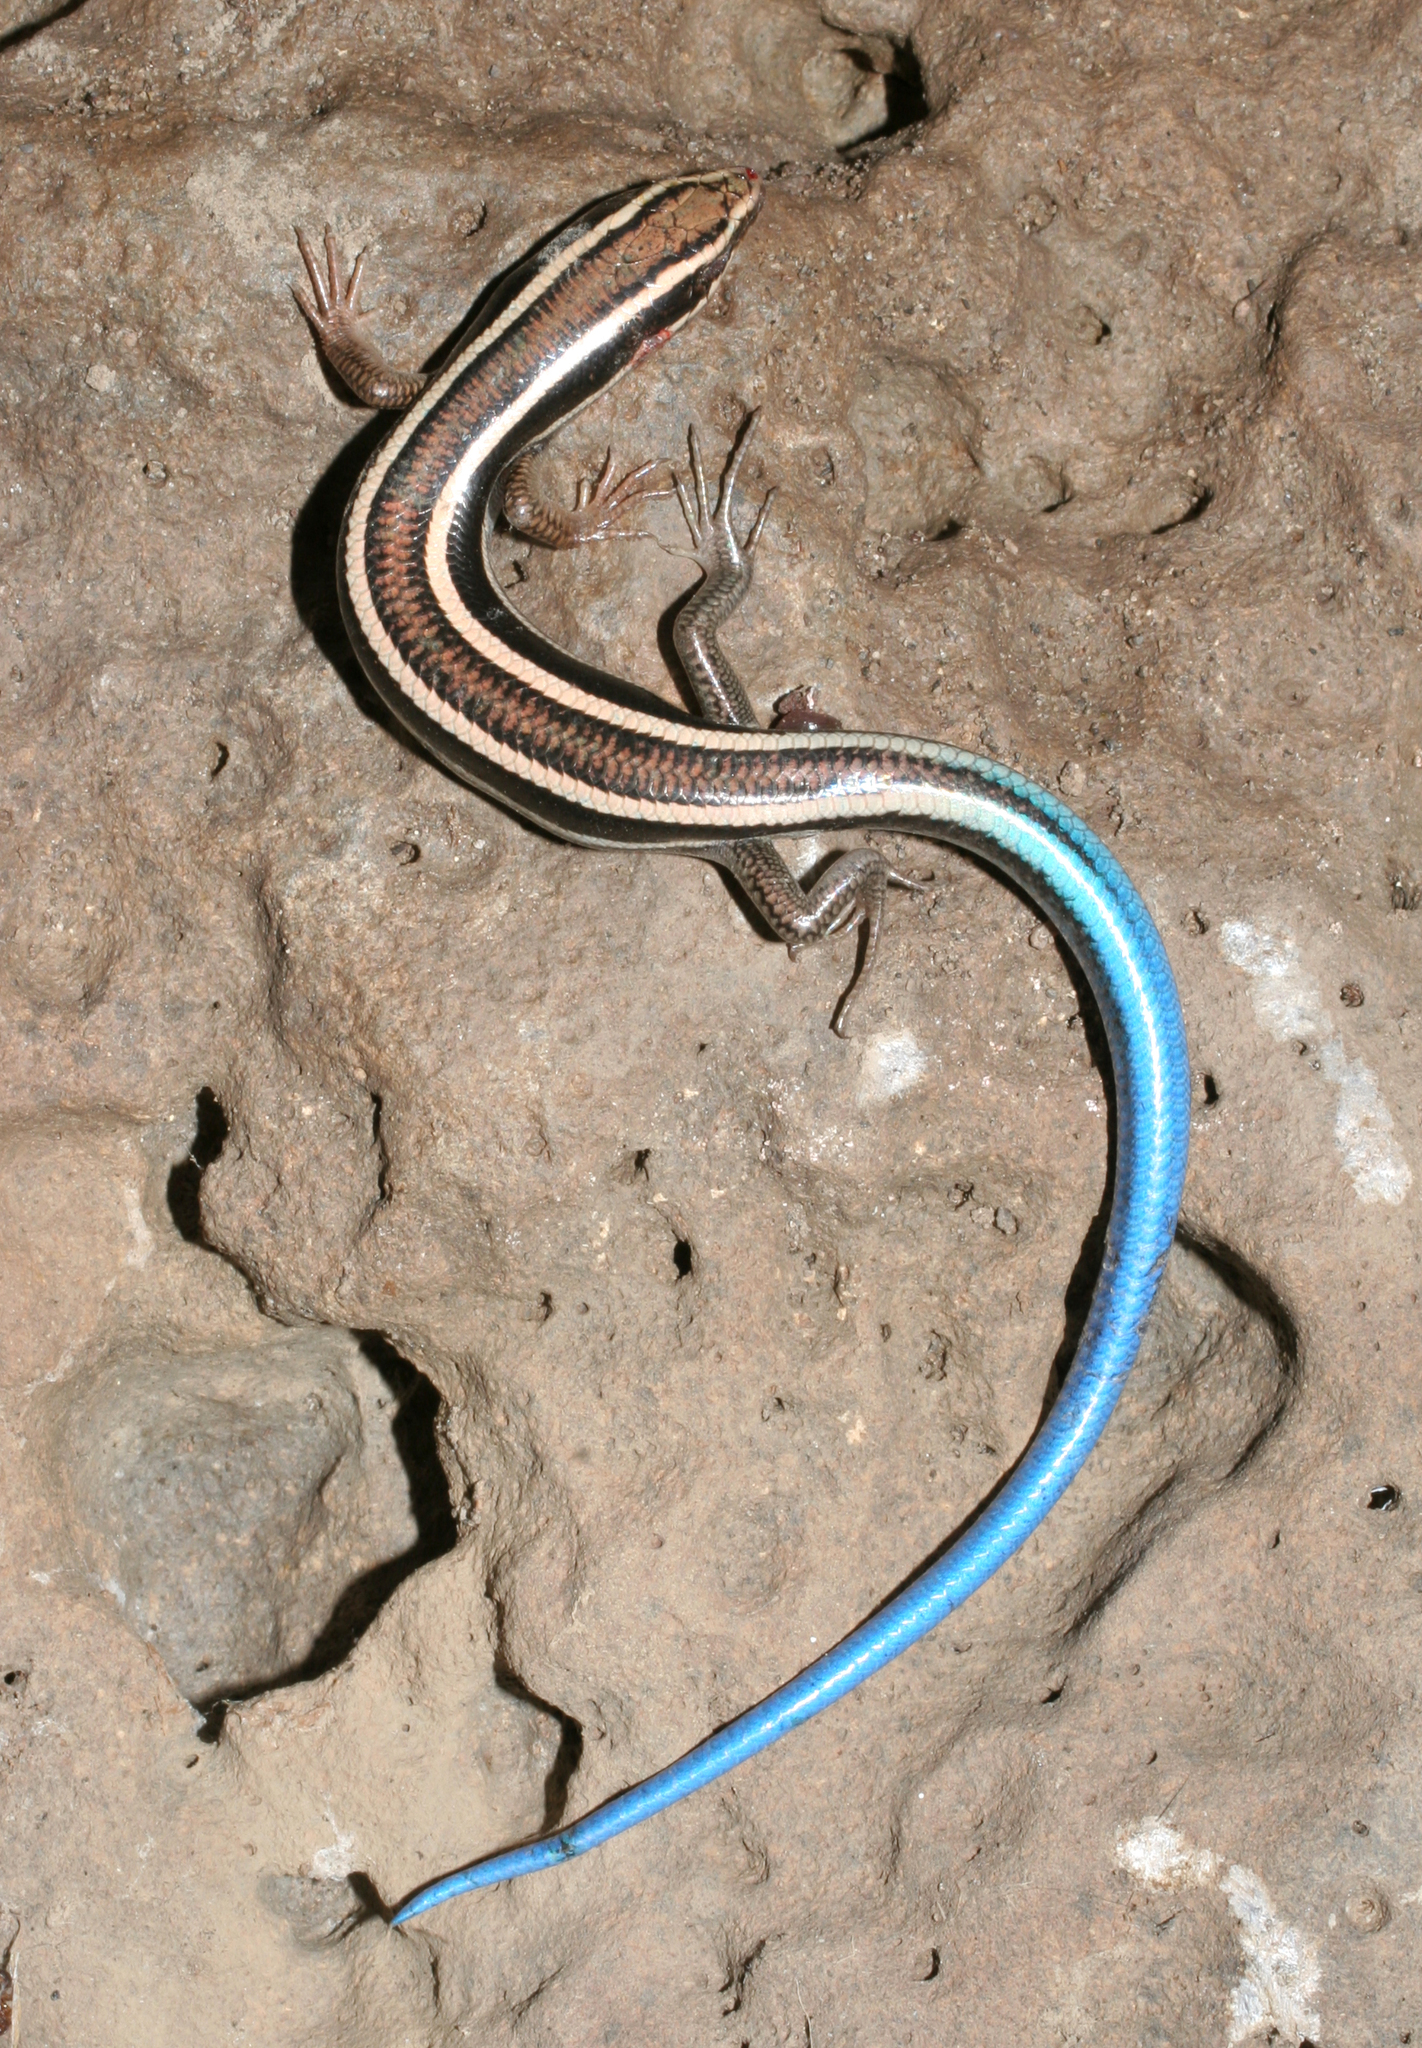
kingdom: Animalia
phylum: Chordata
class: Squamata
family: Scincidae
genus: Plestiodon
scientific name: Plestiodon skiltonianus
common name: Coronado island skink [interparietalis]
